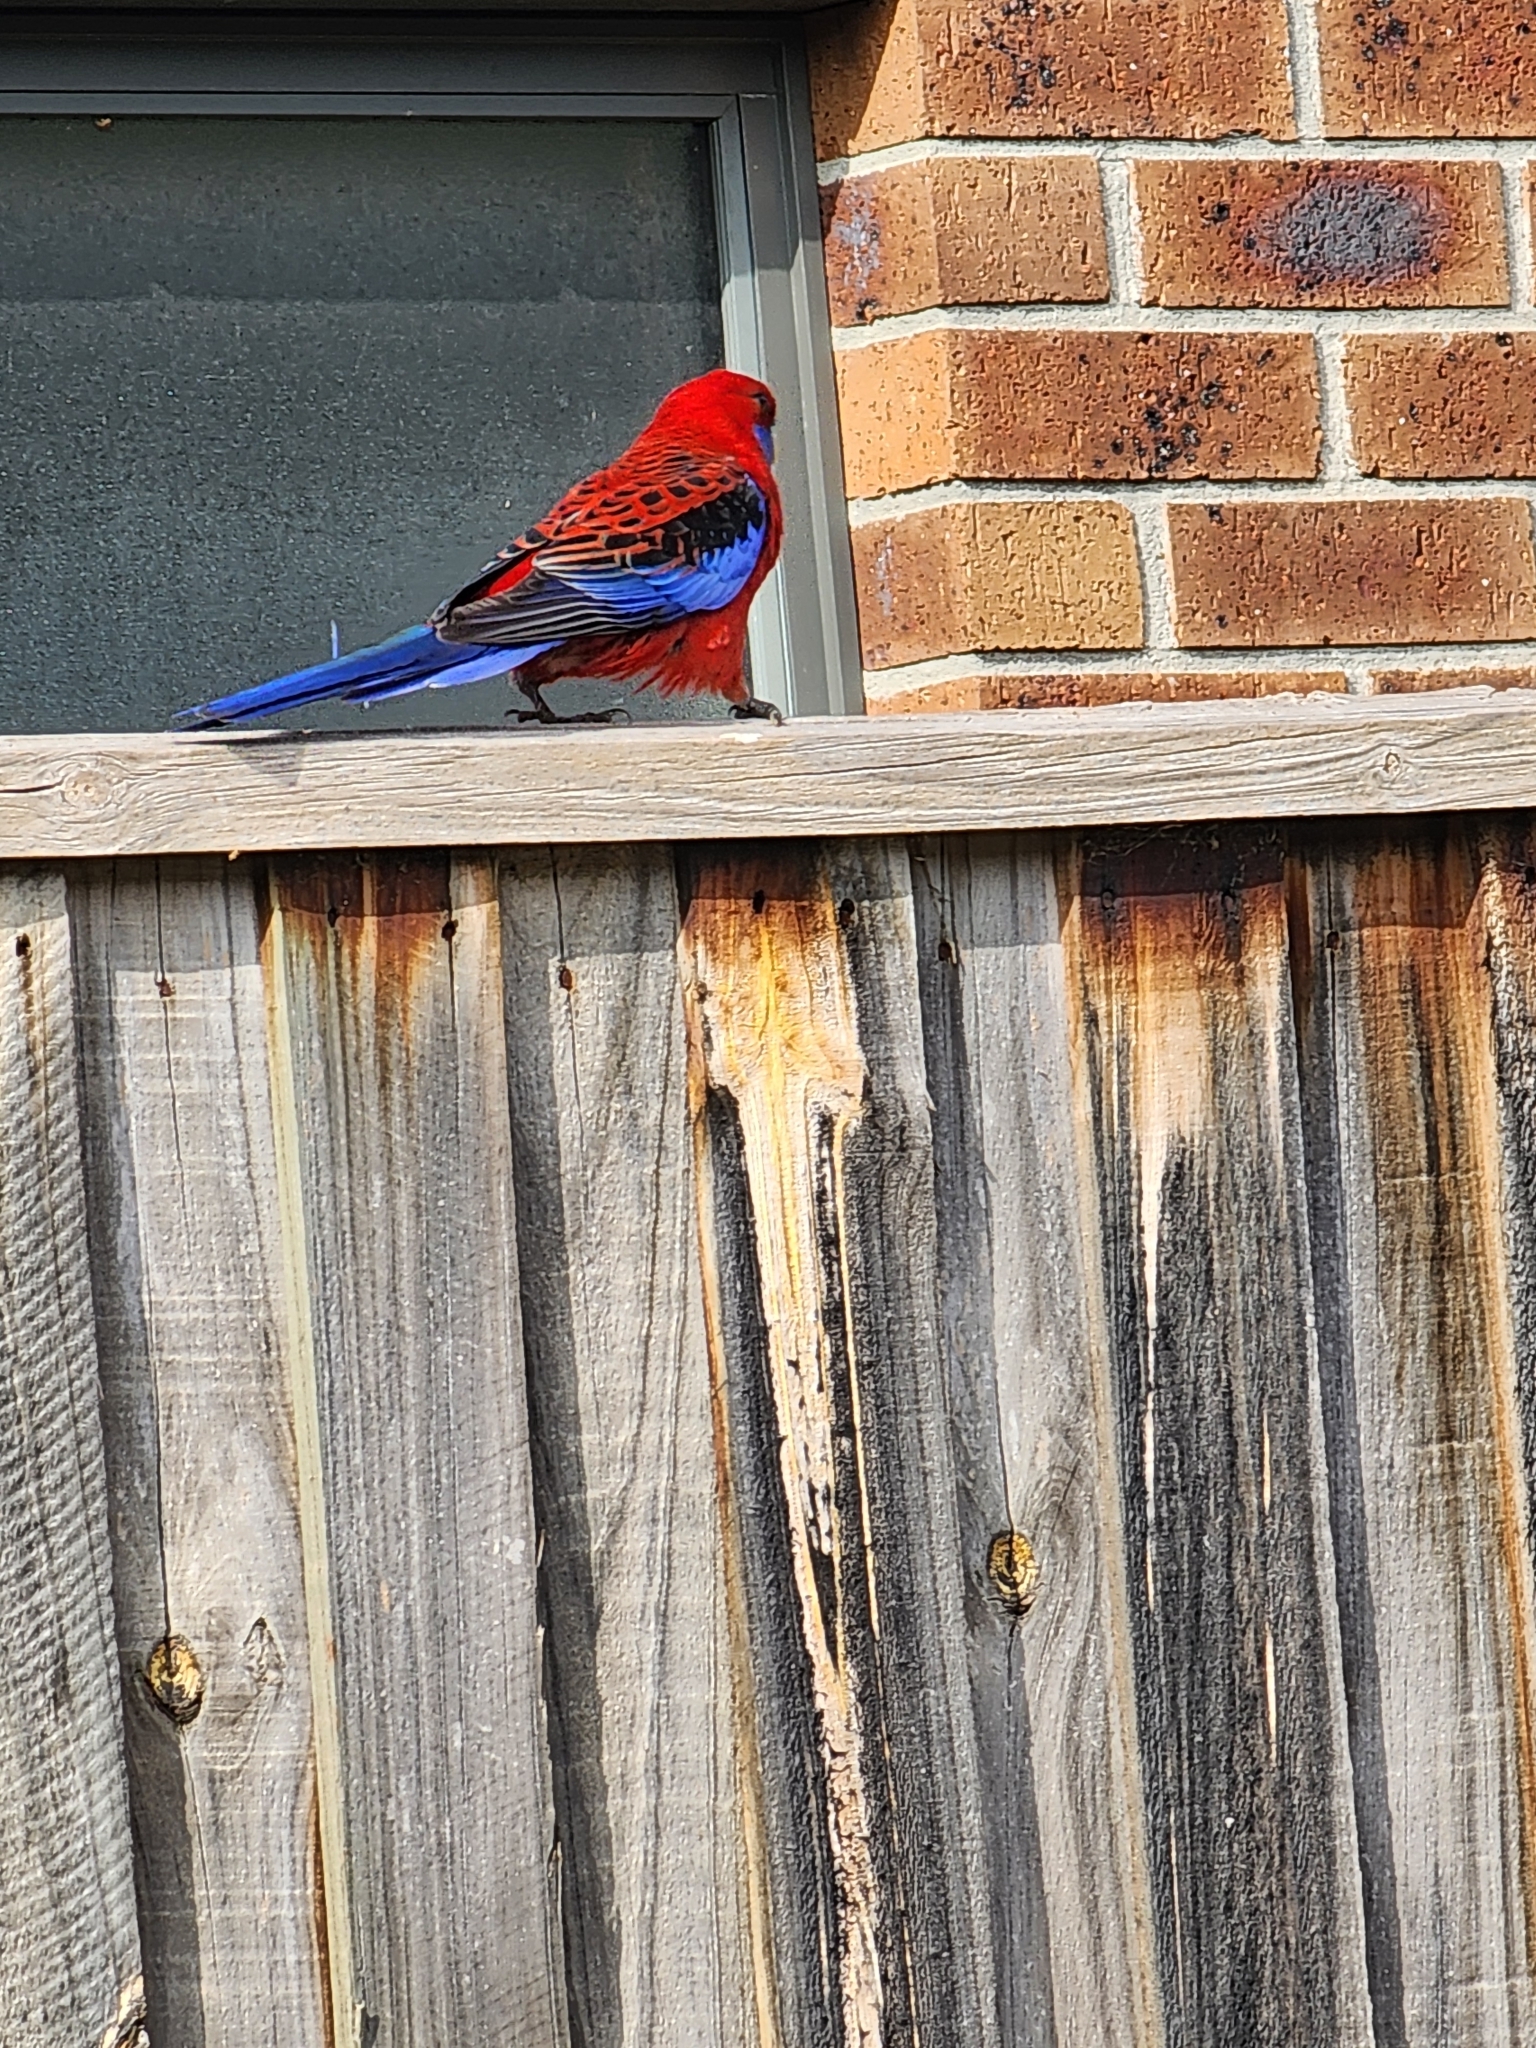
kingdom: Animalia
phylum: Chordata
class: Aves
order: Psittaciformes
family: Psittacidae
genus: Platycercus
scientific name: Platycercus elegans
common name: Crimson rosella
